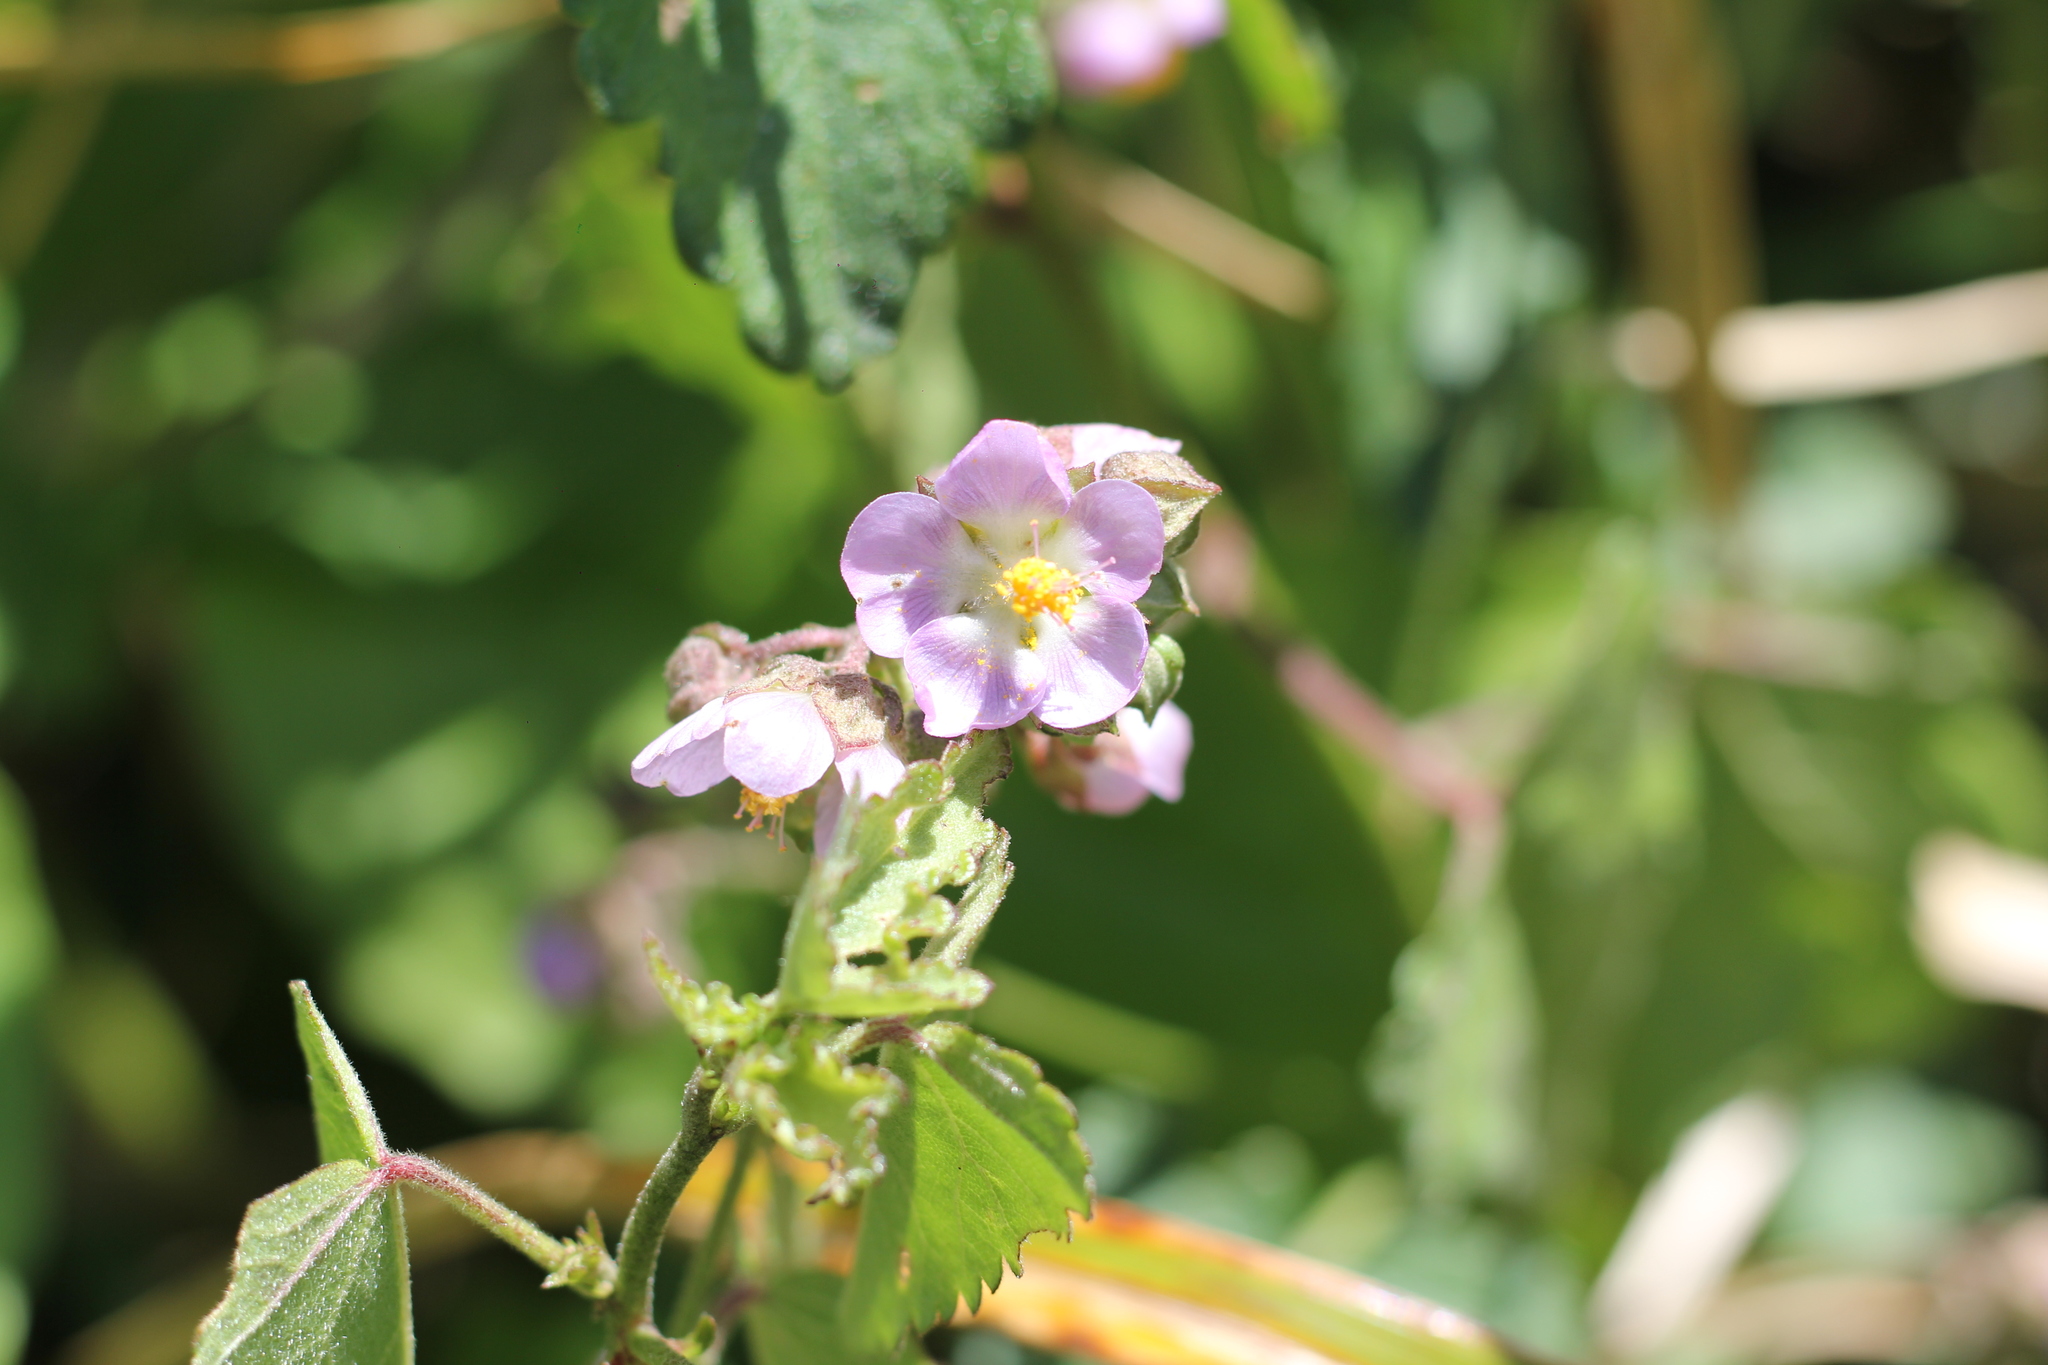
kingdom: Plantae
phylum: Tracheophyta
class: Magnoliopsida
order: Malvales
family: Malvaceae
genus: Monteiroa
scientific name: Monteiroa glomerata
